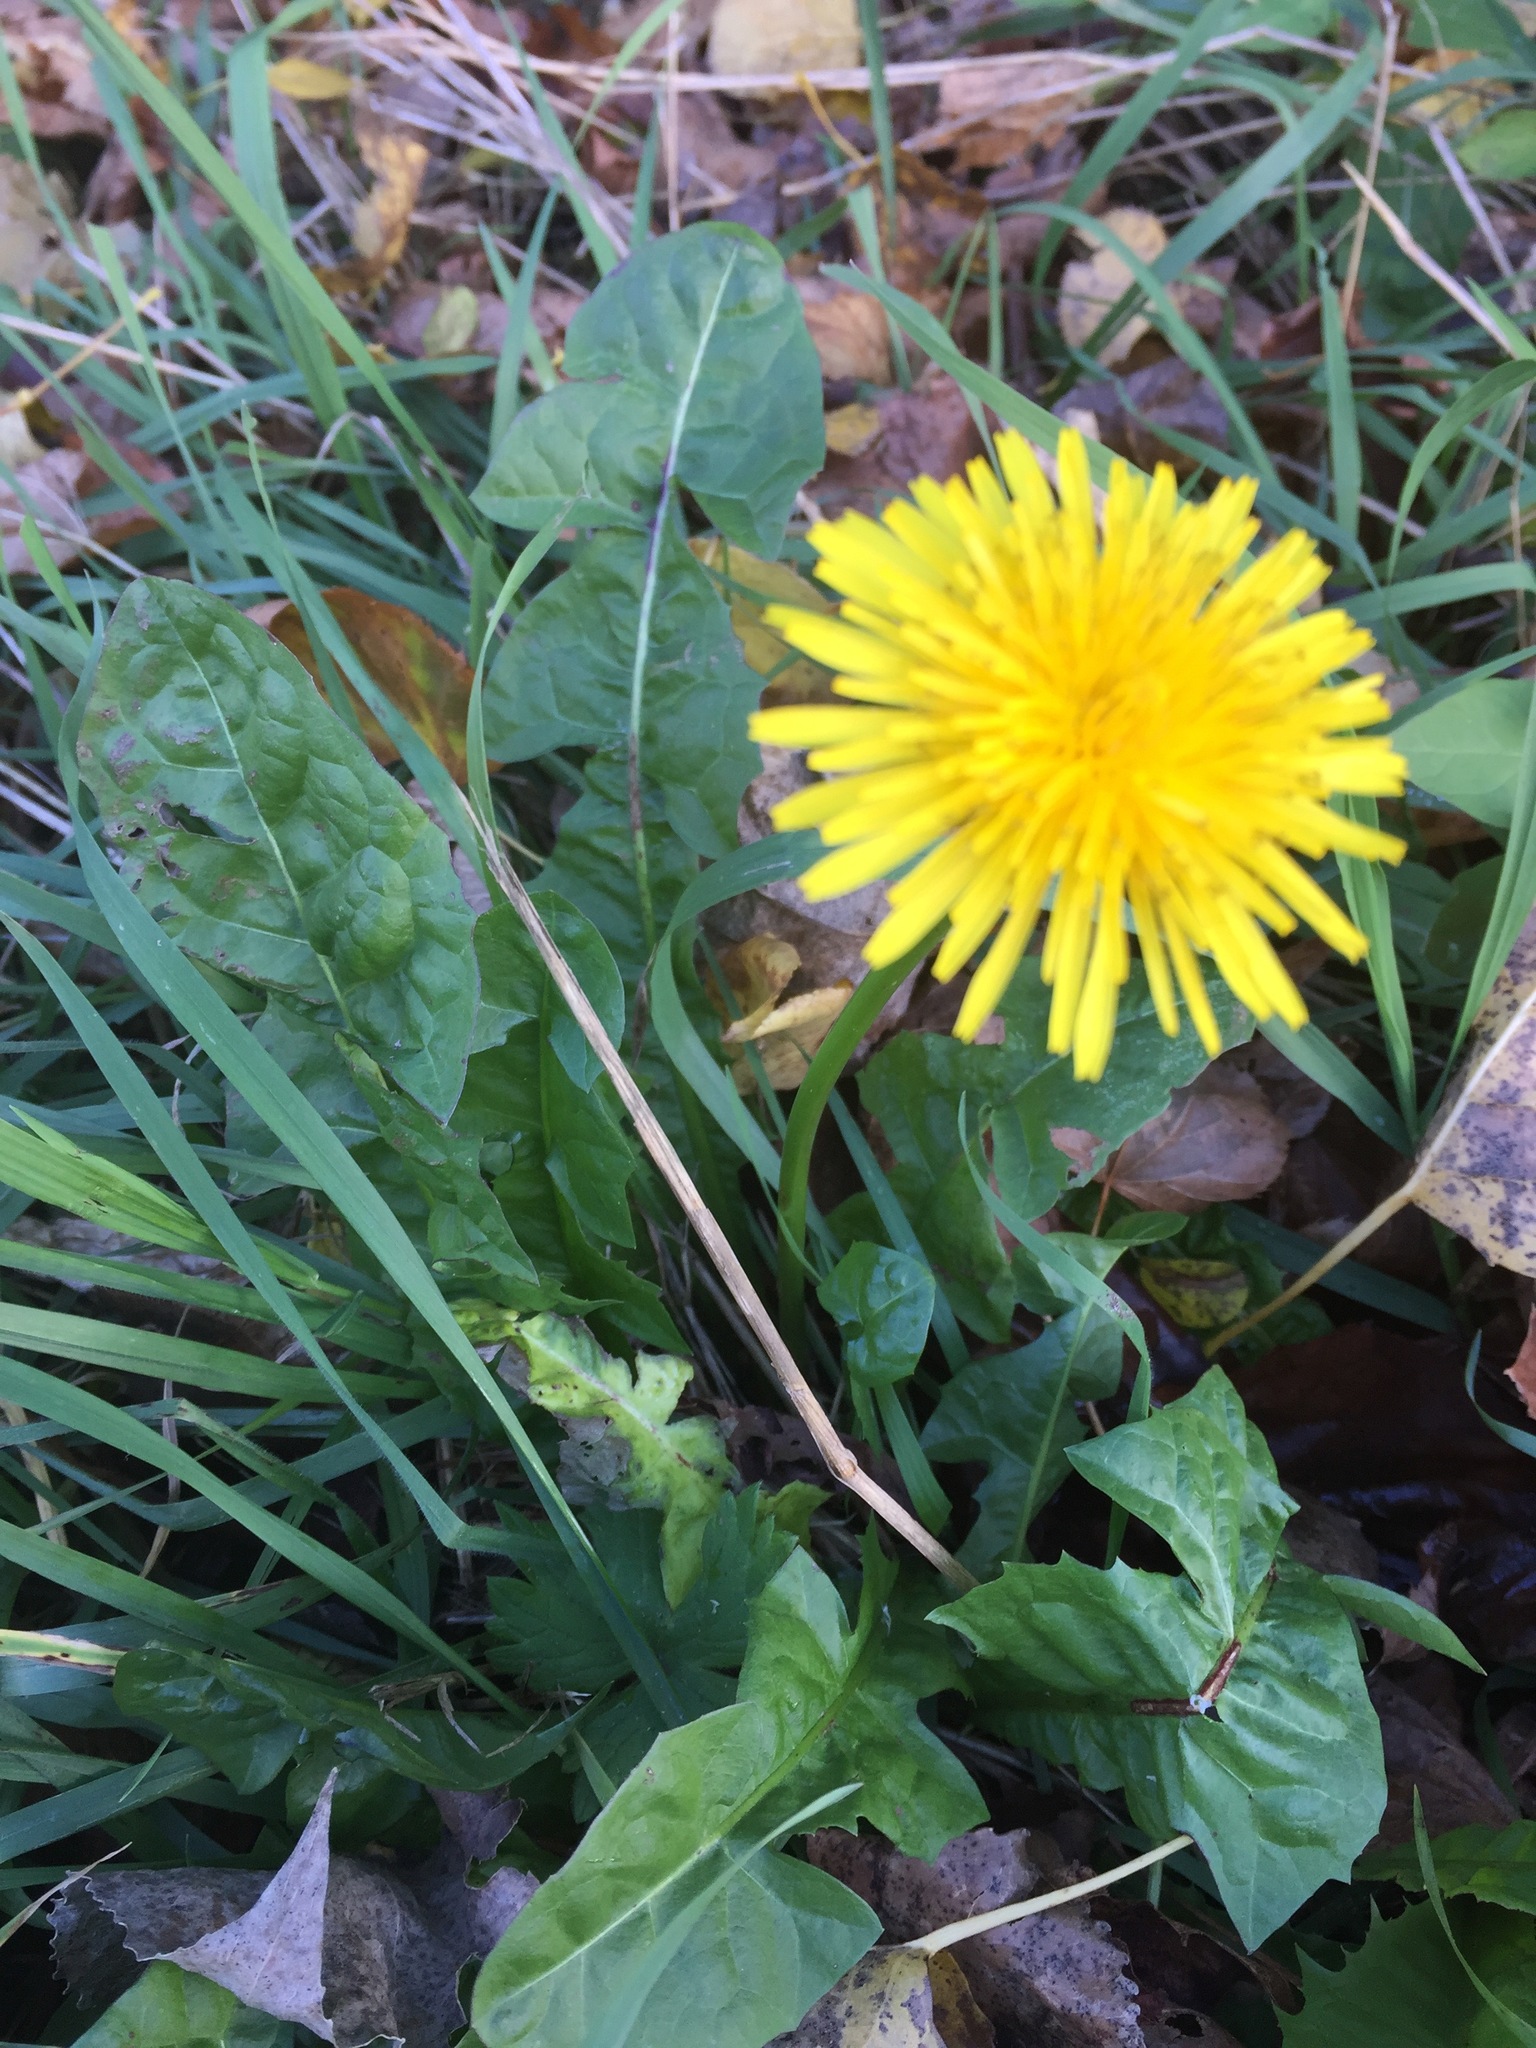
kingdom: Plantae
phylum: Tracheophyta
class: Magnoliopsida
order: Asterales
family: Asteraceae
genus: Taraxacum
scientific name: Taraxacum officinale
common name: Common dandelion
